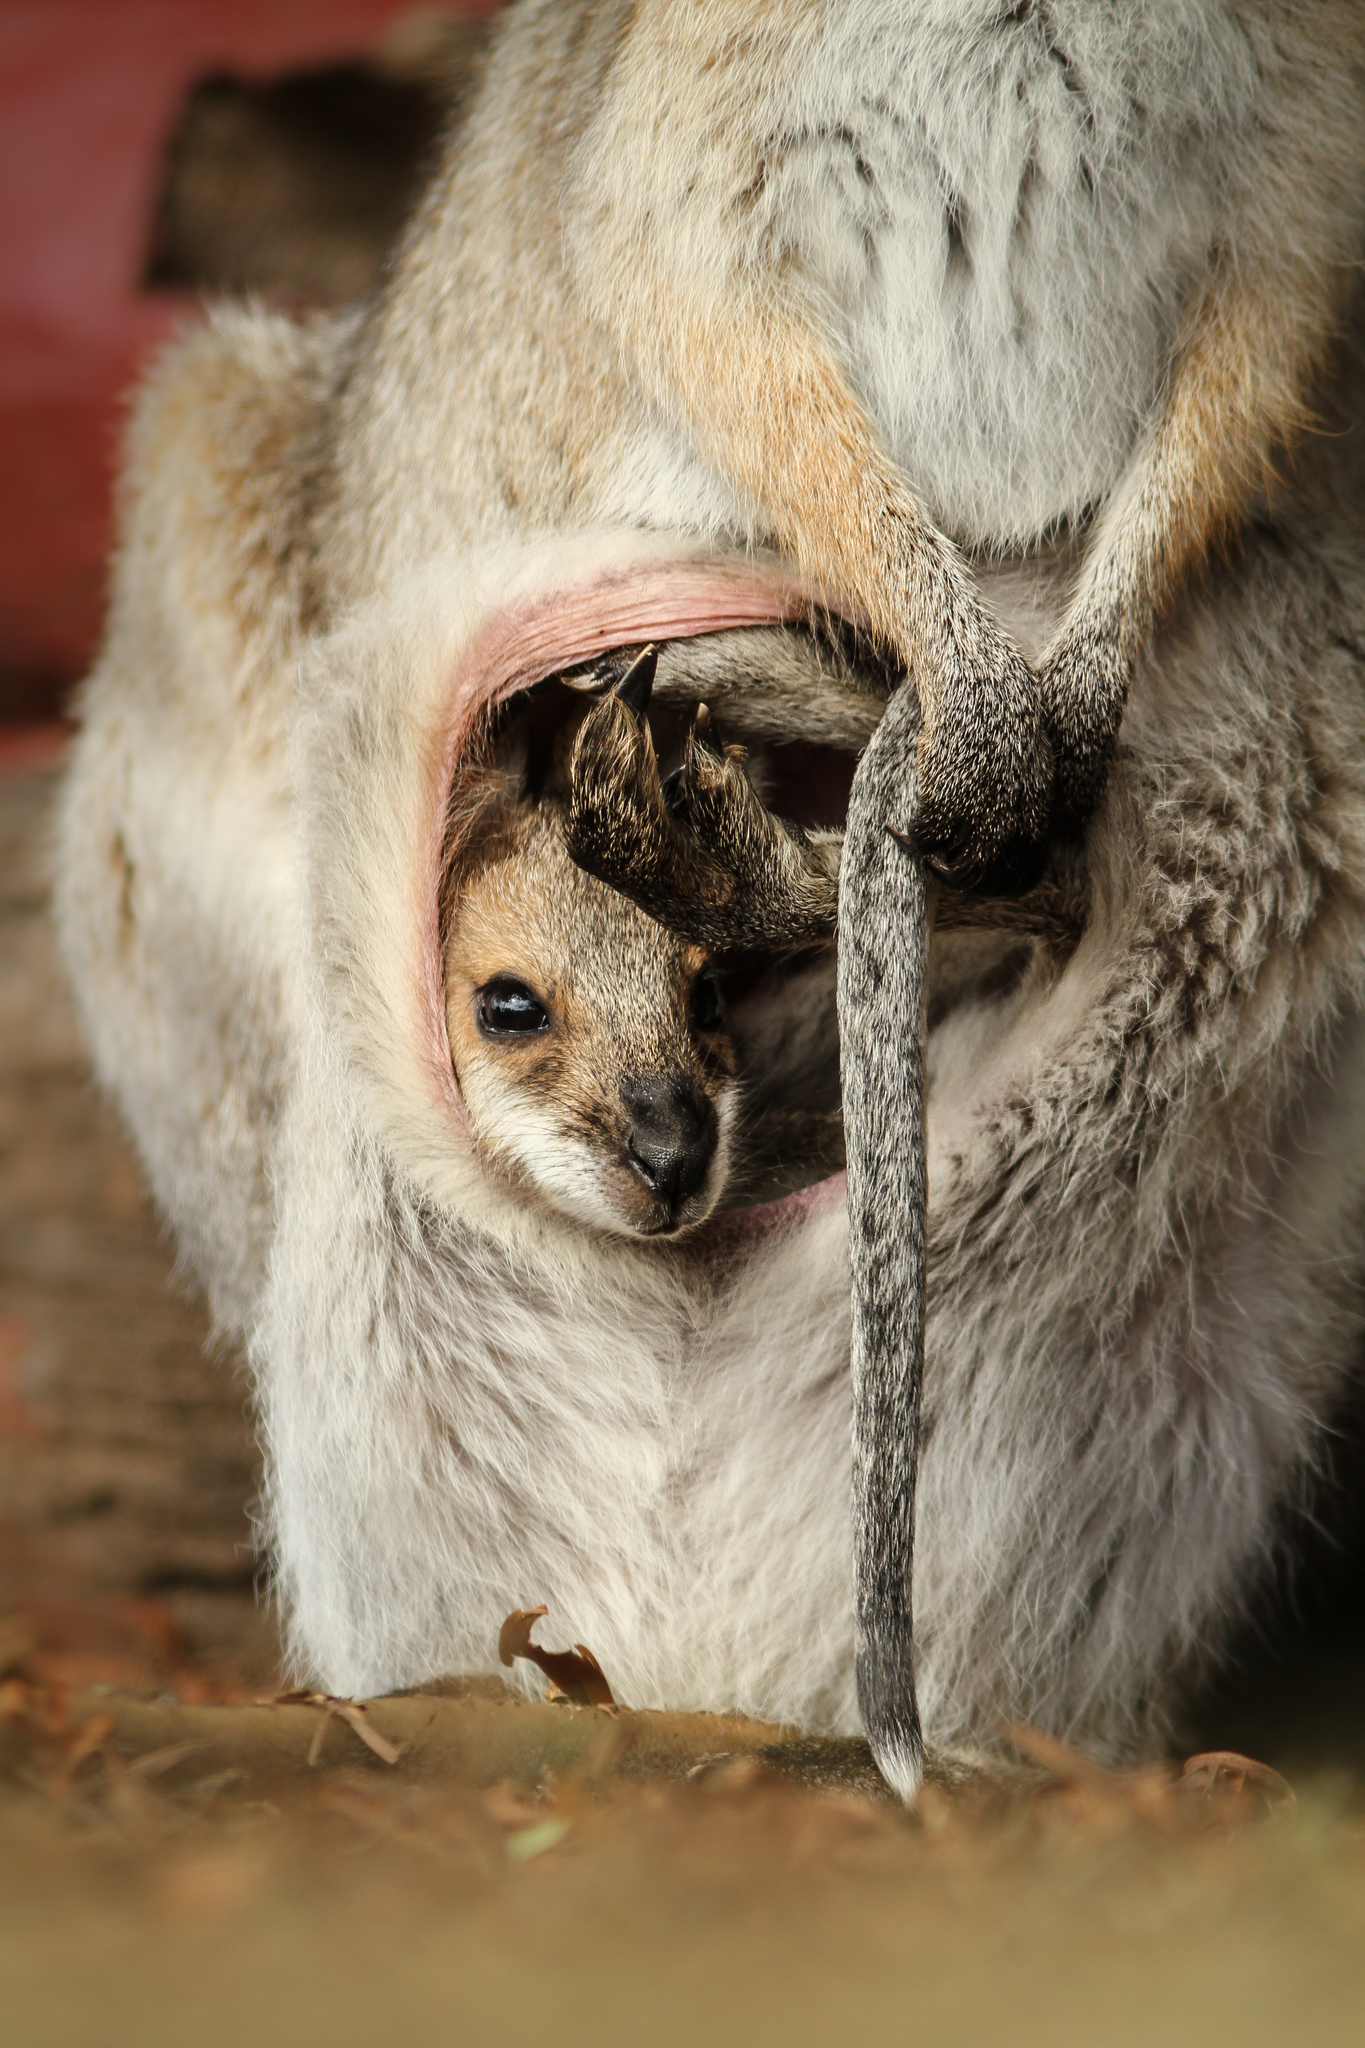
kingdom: Animalia
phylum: Chordata
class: Mammalia
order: Diprotodontia
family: Macropodidae
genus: Notamacropus
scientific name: Notamacropus rufogriseus
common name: Red-necked wallaby
